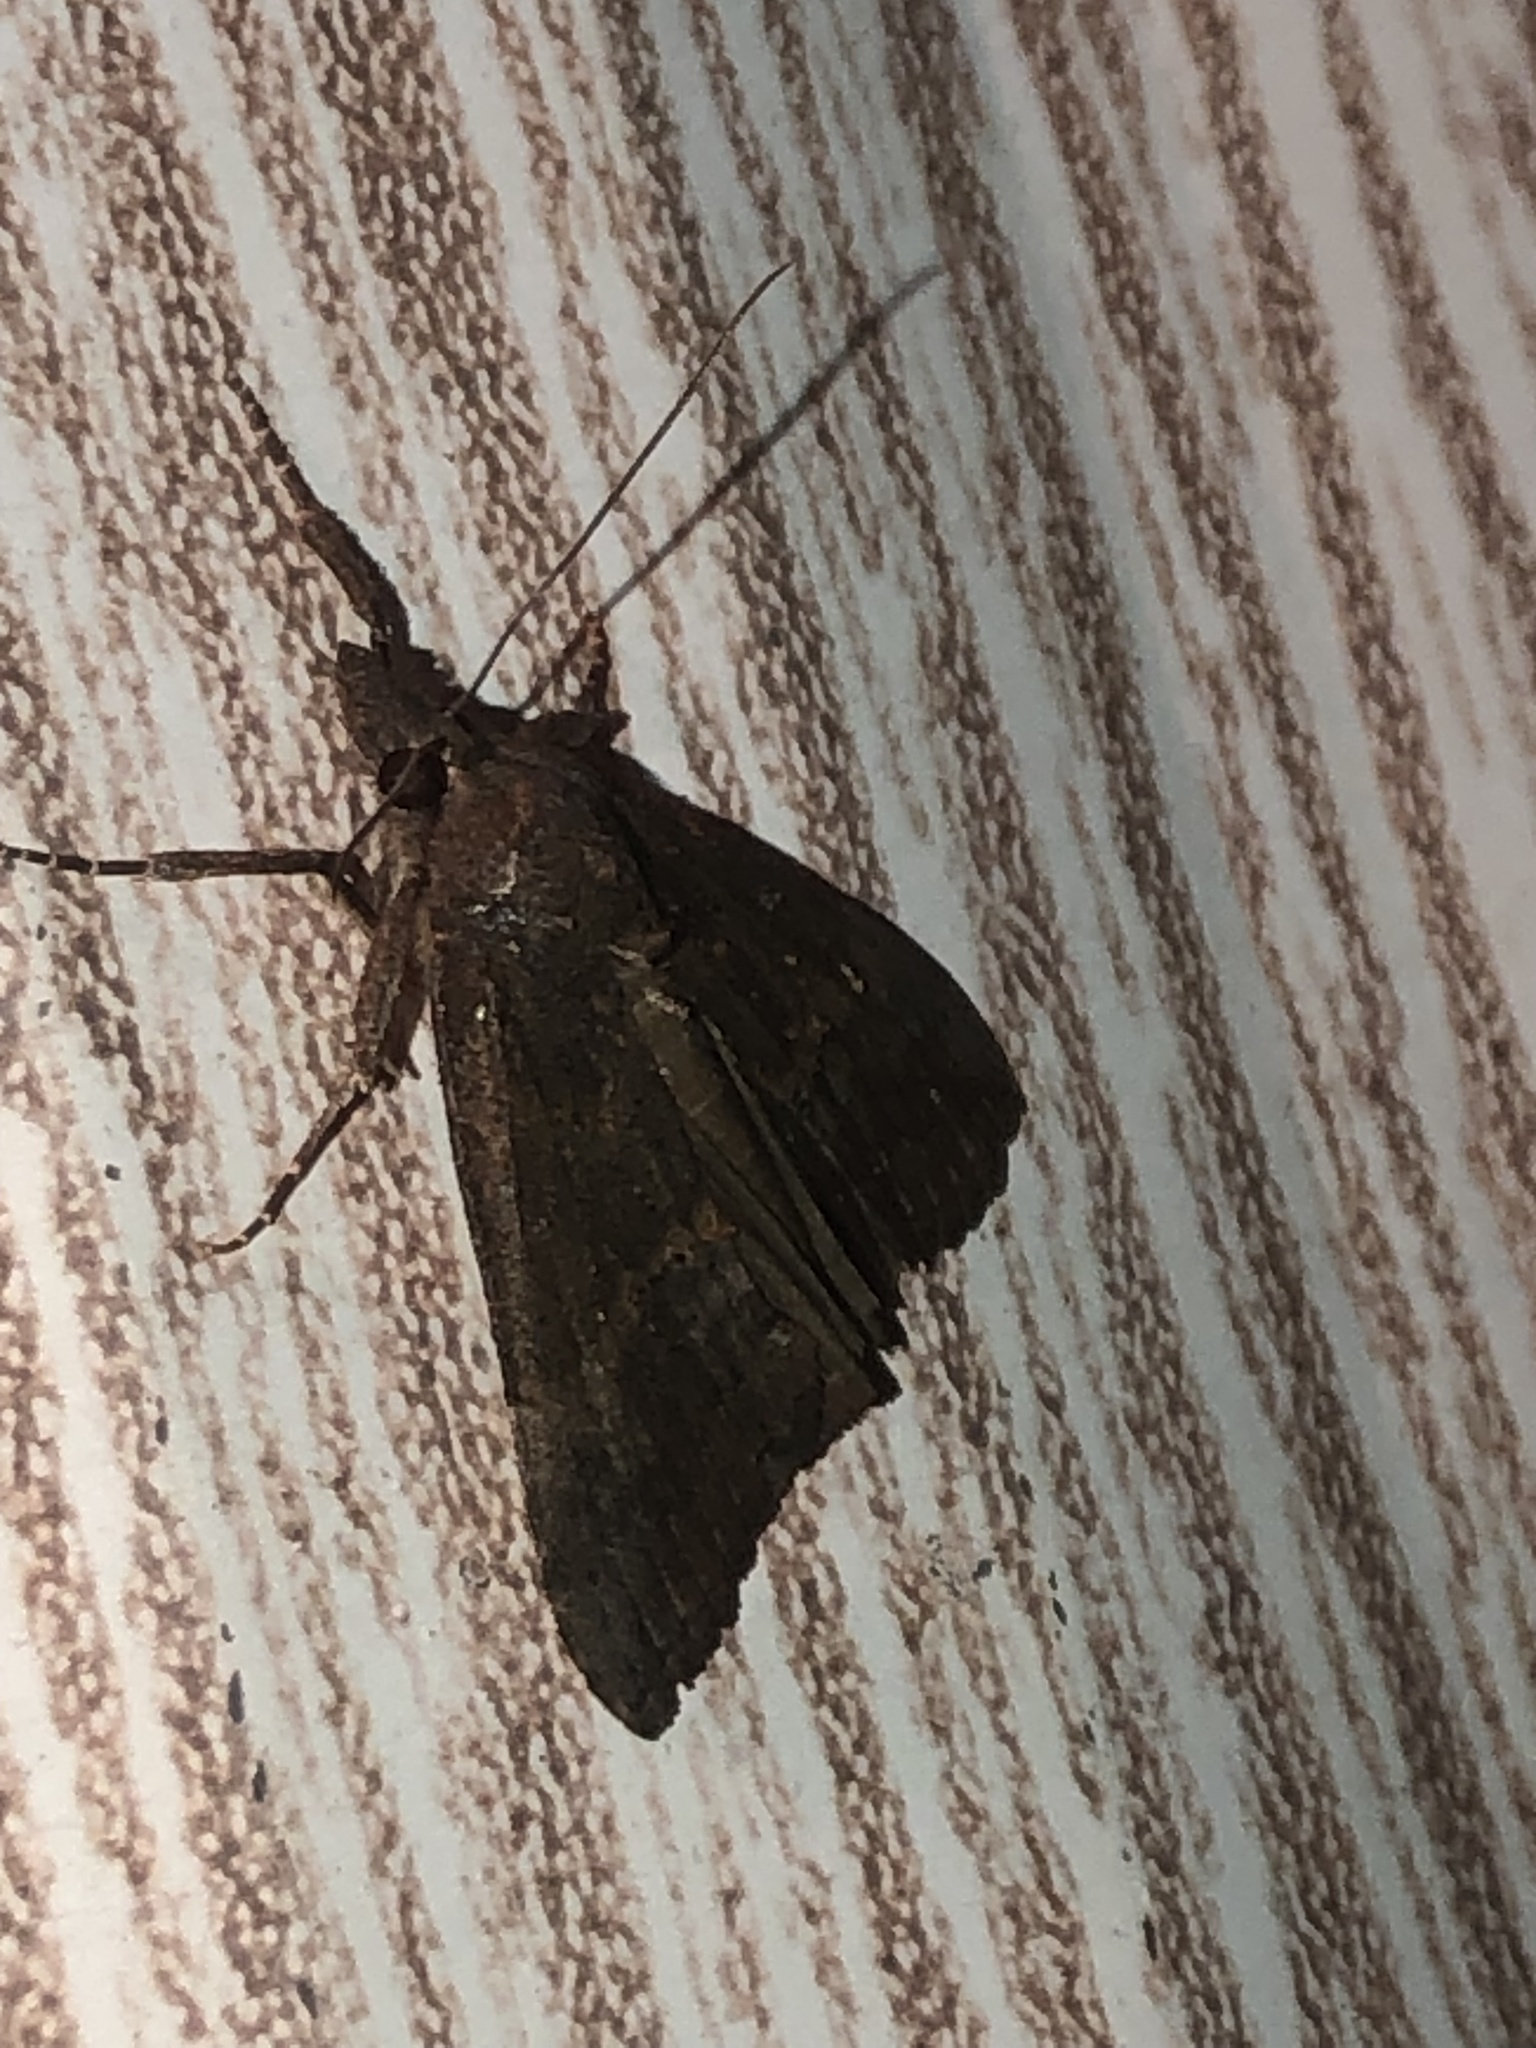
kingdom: Animalia
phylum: Arthropoda
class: Insecta
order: Lepidoptera
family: Erebidae
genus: Hypena
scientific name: Hypena scabra
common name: Green cloverworm
